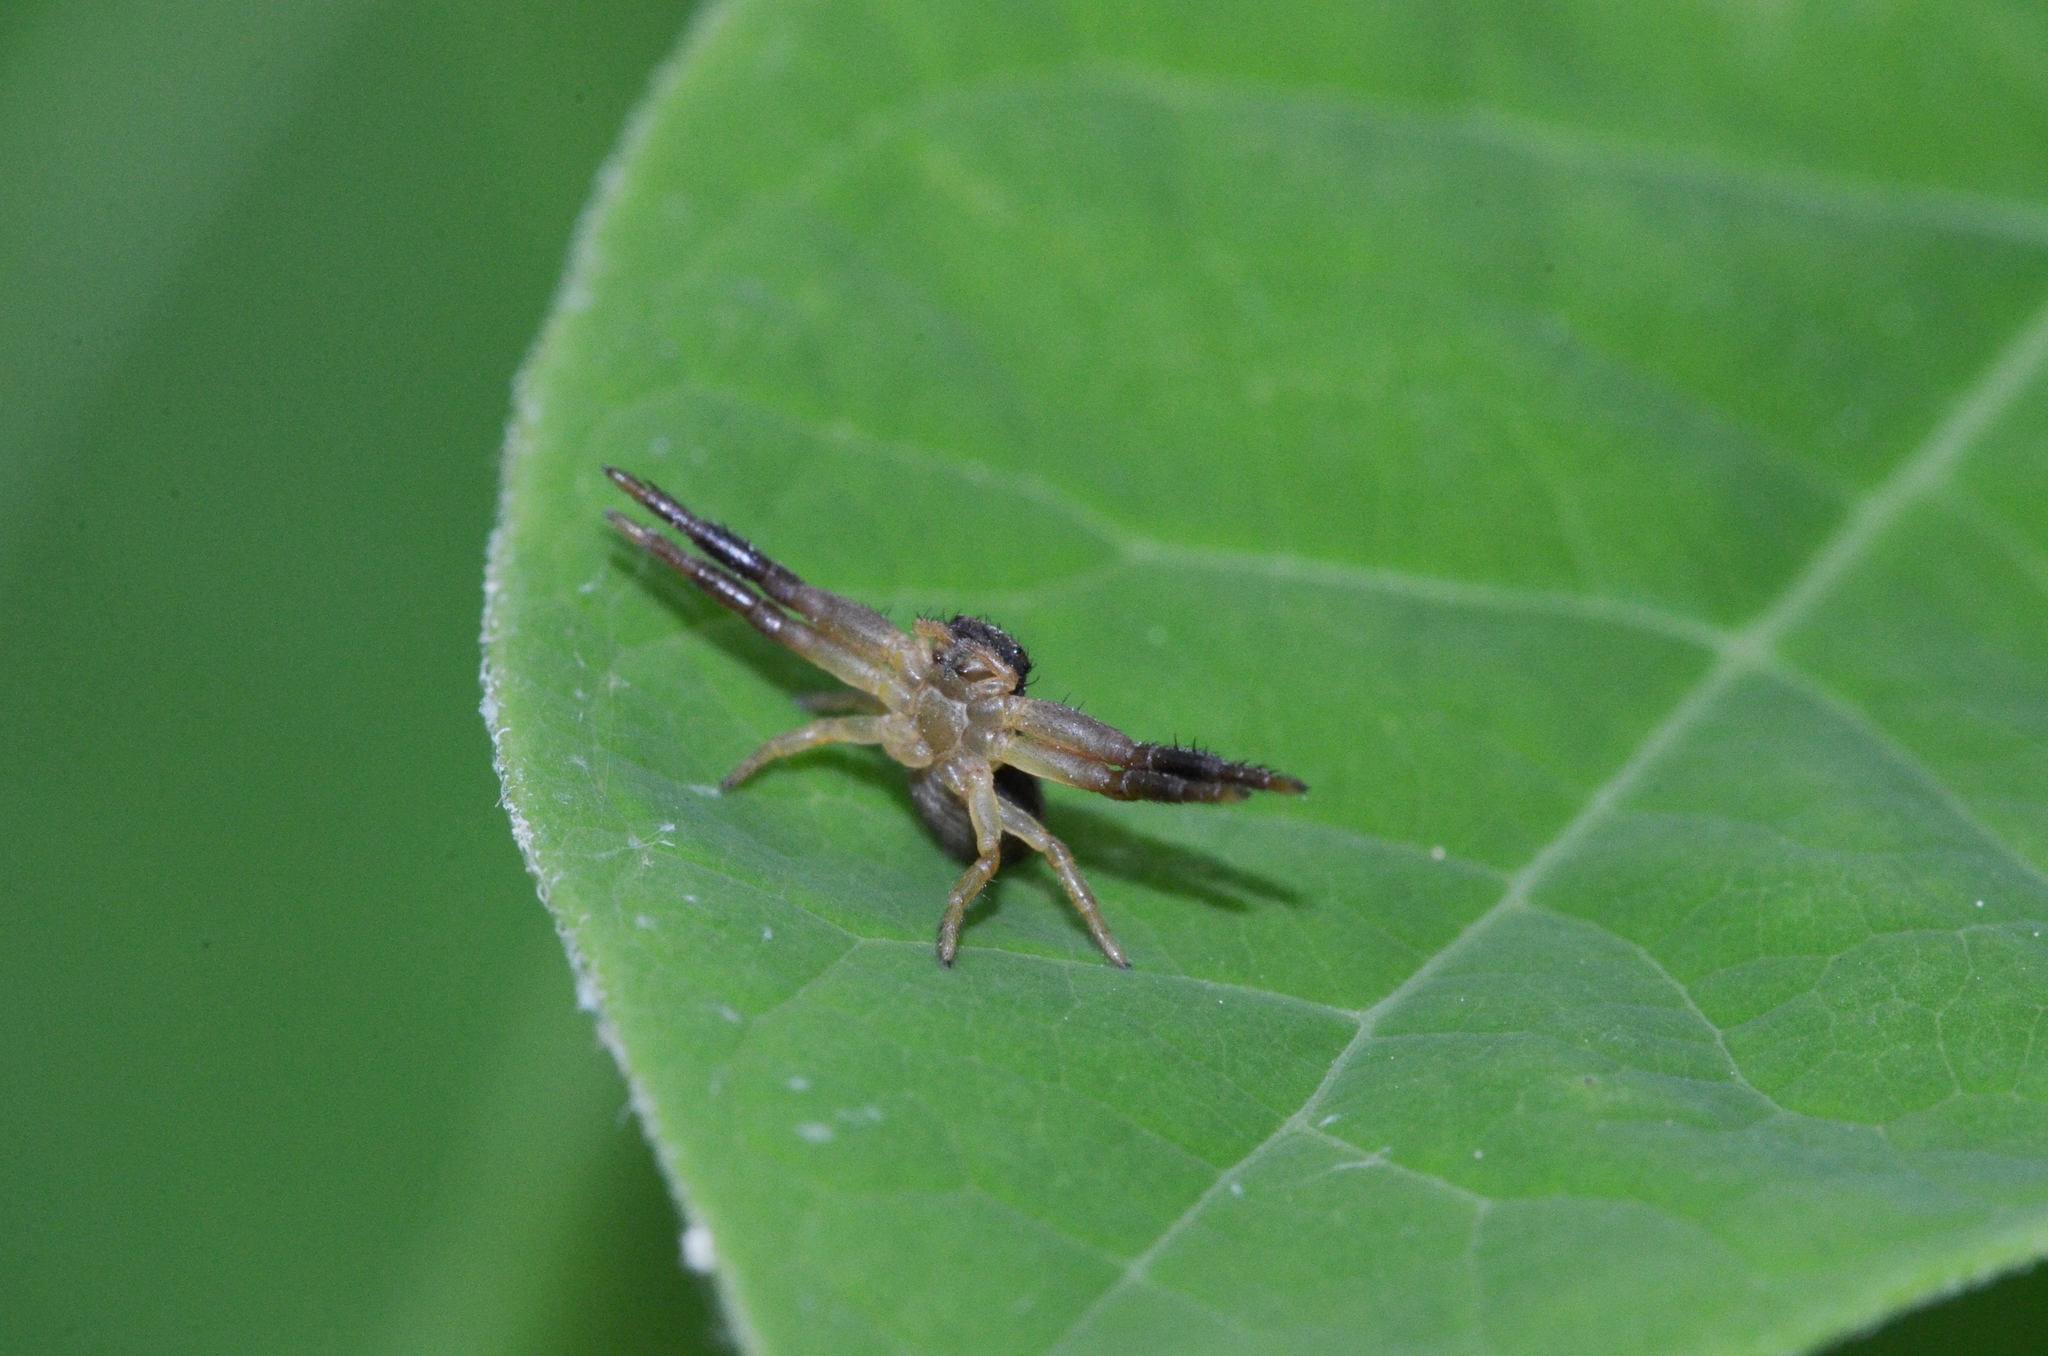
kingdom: Animalia
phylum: Arthropoda
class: Arachnida
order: Araneae
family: Thomisidae
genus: Xysticus
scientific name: Xysticus texanus
